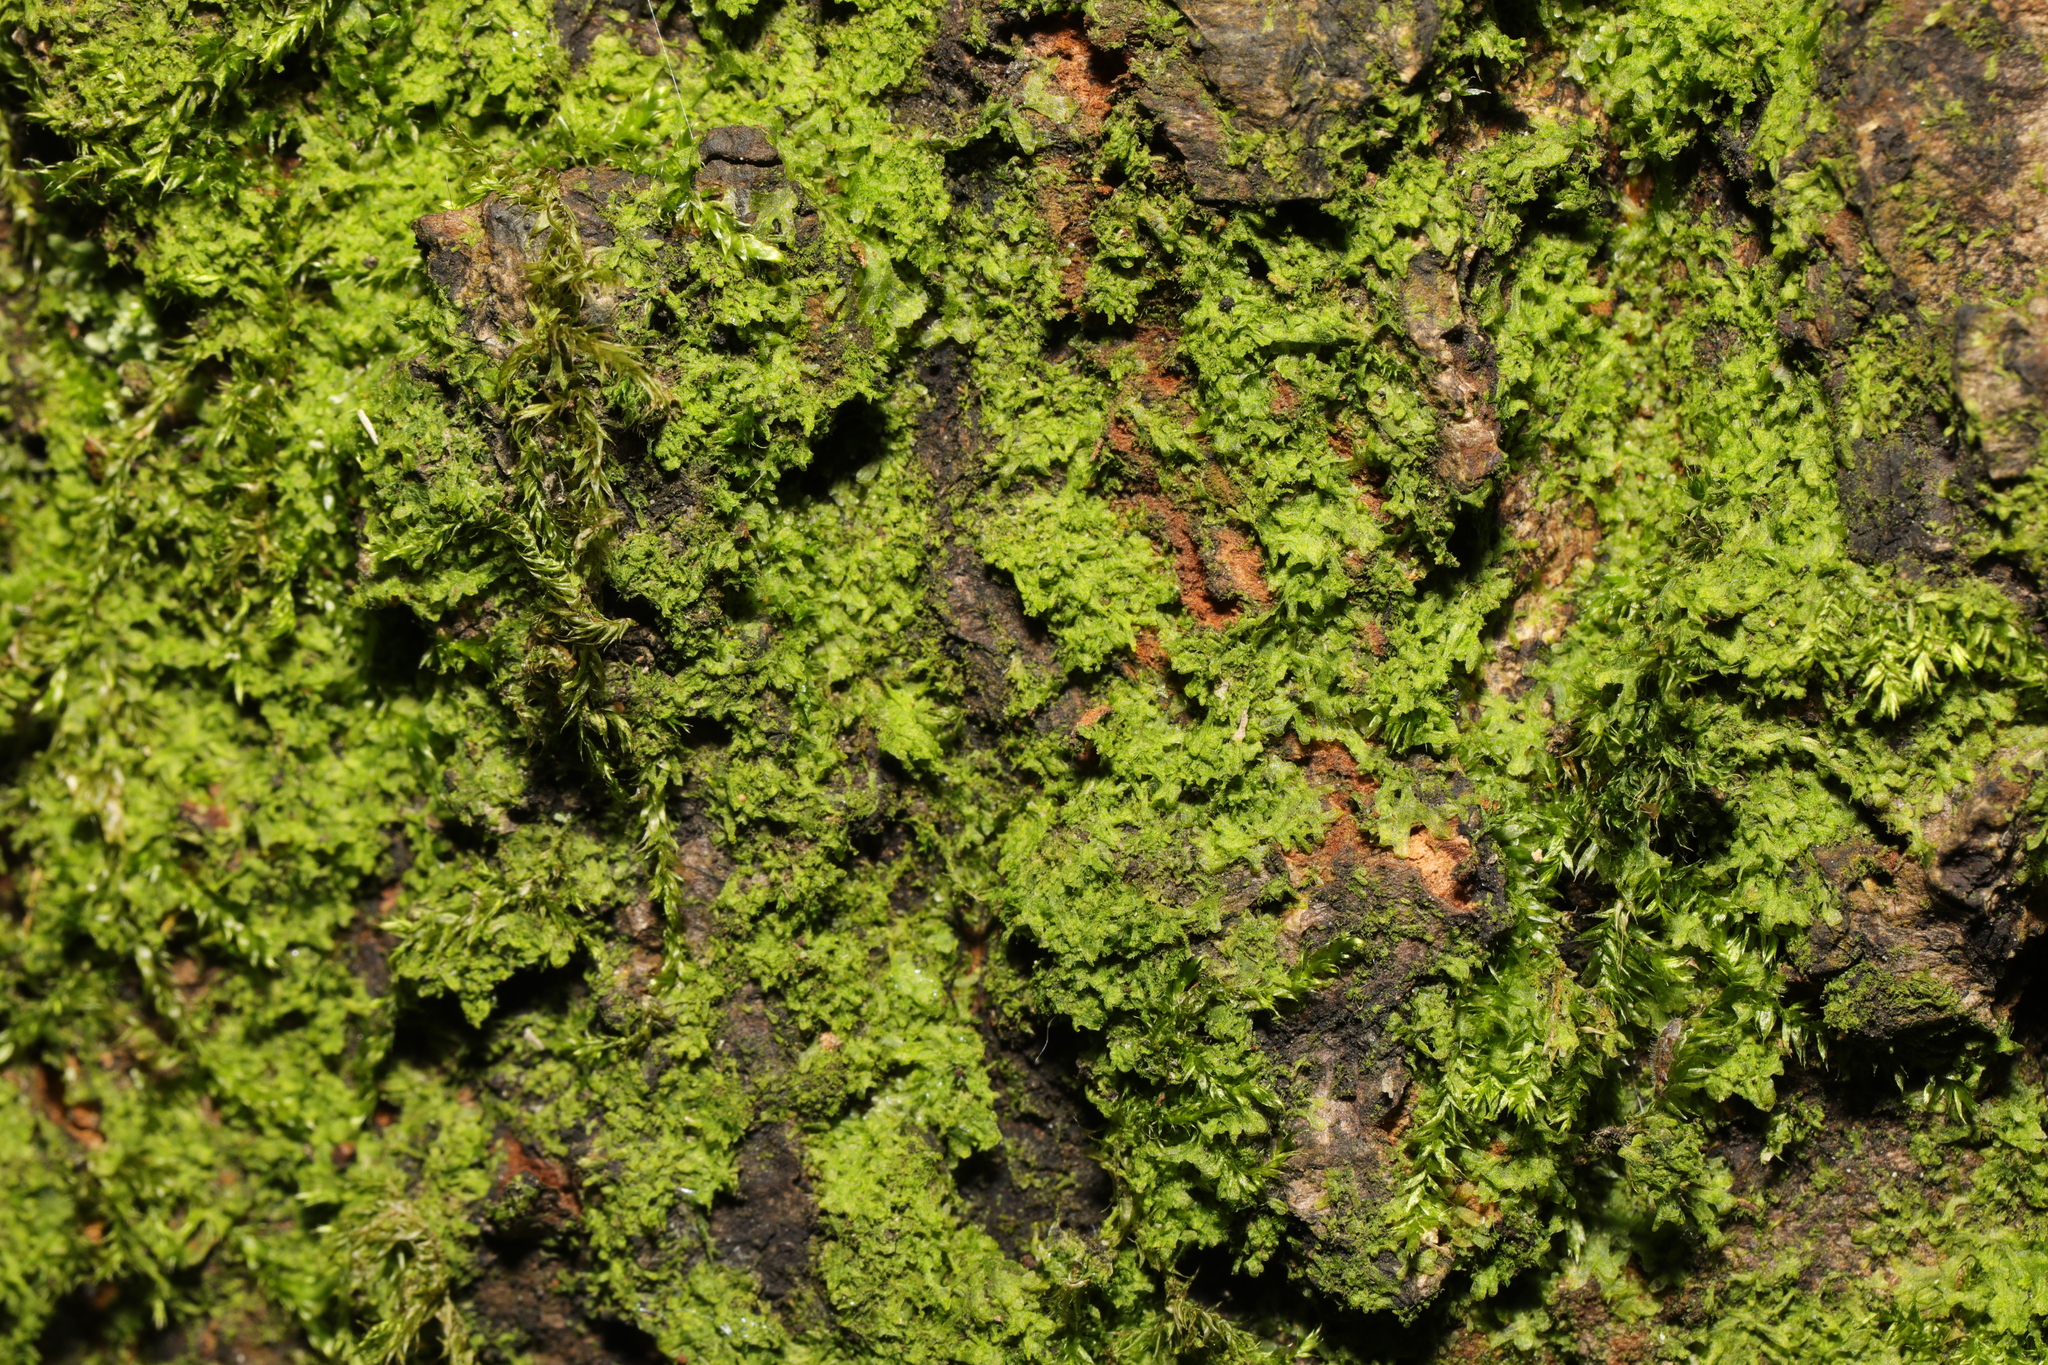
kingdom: Plantae
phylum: Marchantiophyta
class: Jungermanniopsida
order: Metzgeriales
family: Metzgeriaceae
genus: Metzgeria
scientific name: Metzgeria furcata
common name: Forked veilwort
